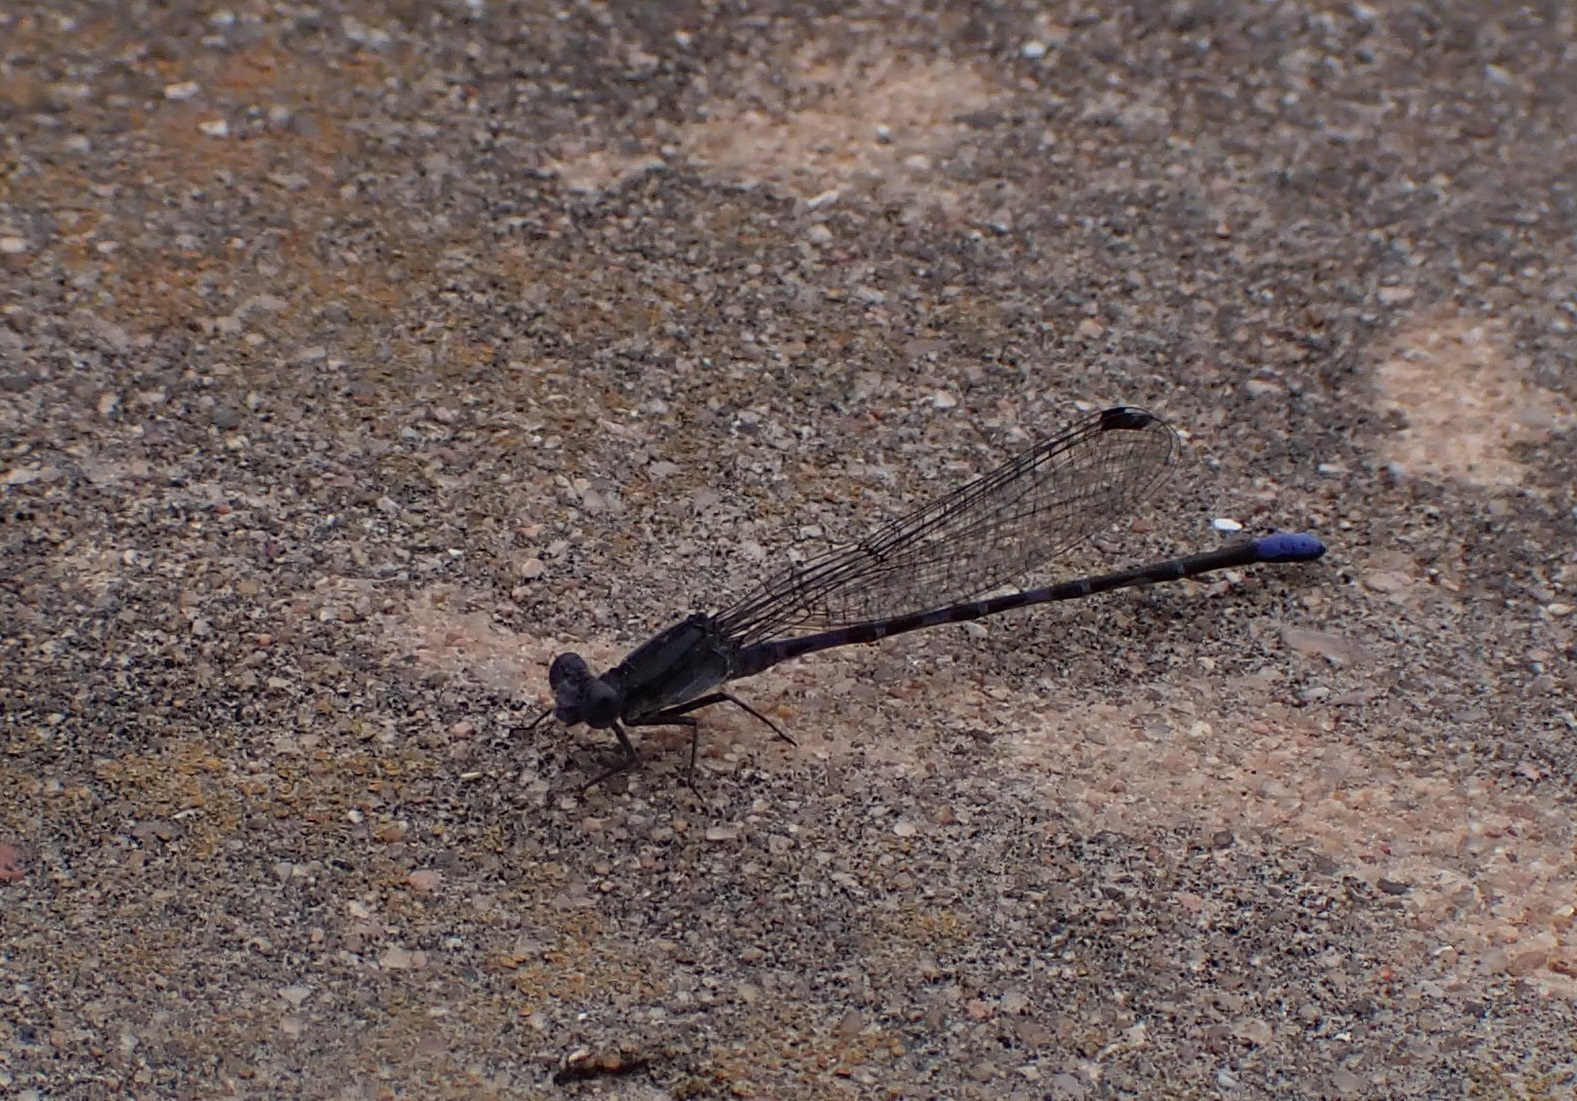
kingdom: Animalia
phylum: Arthropoda
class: Insecta
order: Odonata
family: Coenagrionidae
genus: Argia
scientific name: Argia immunda
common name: Kiowa dancer
